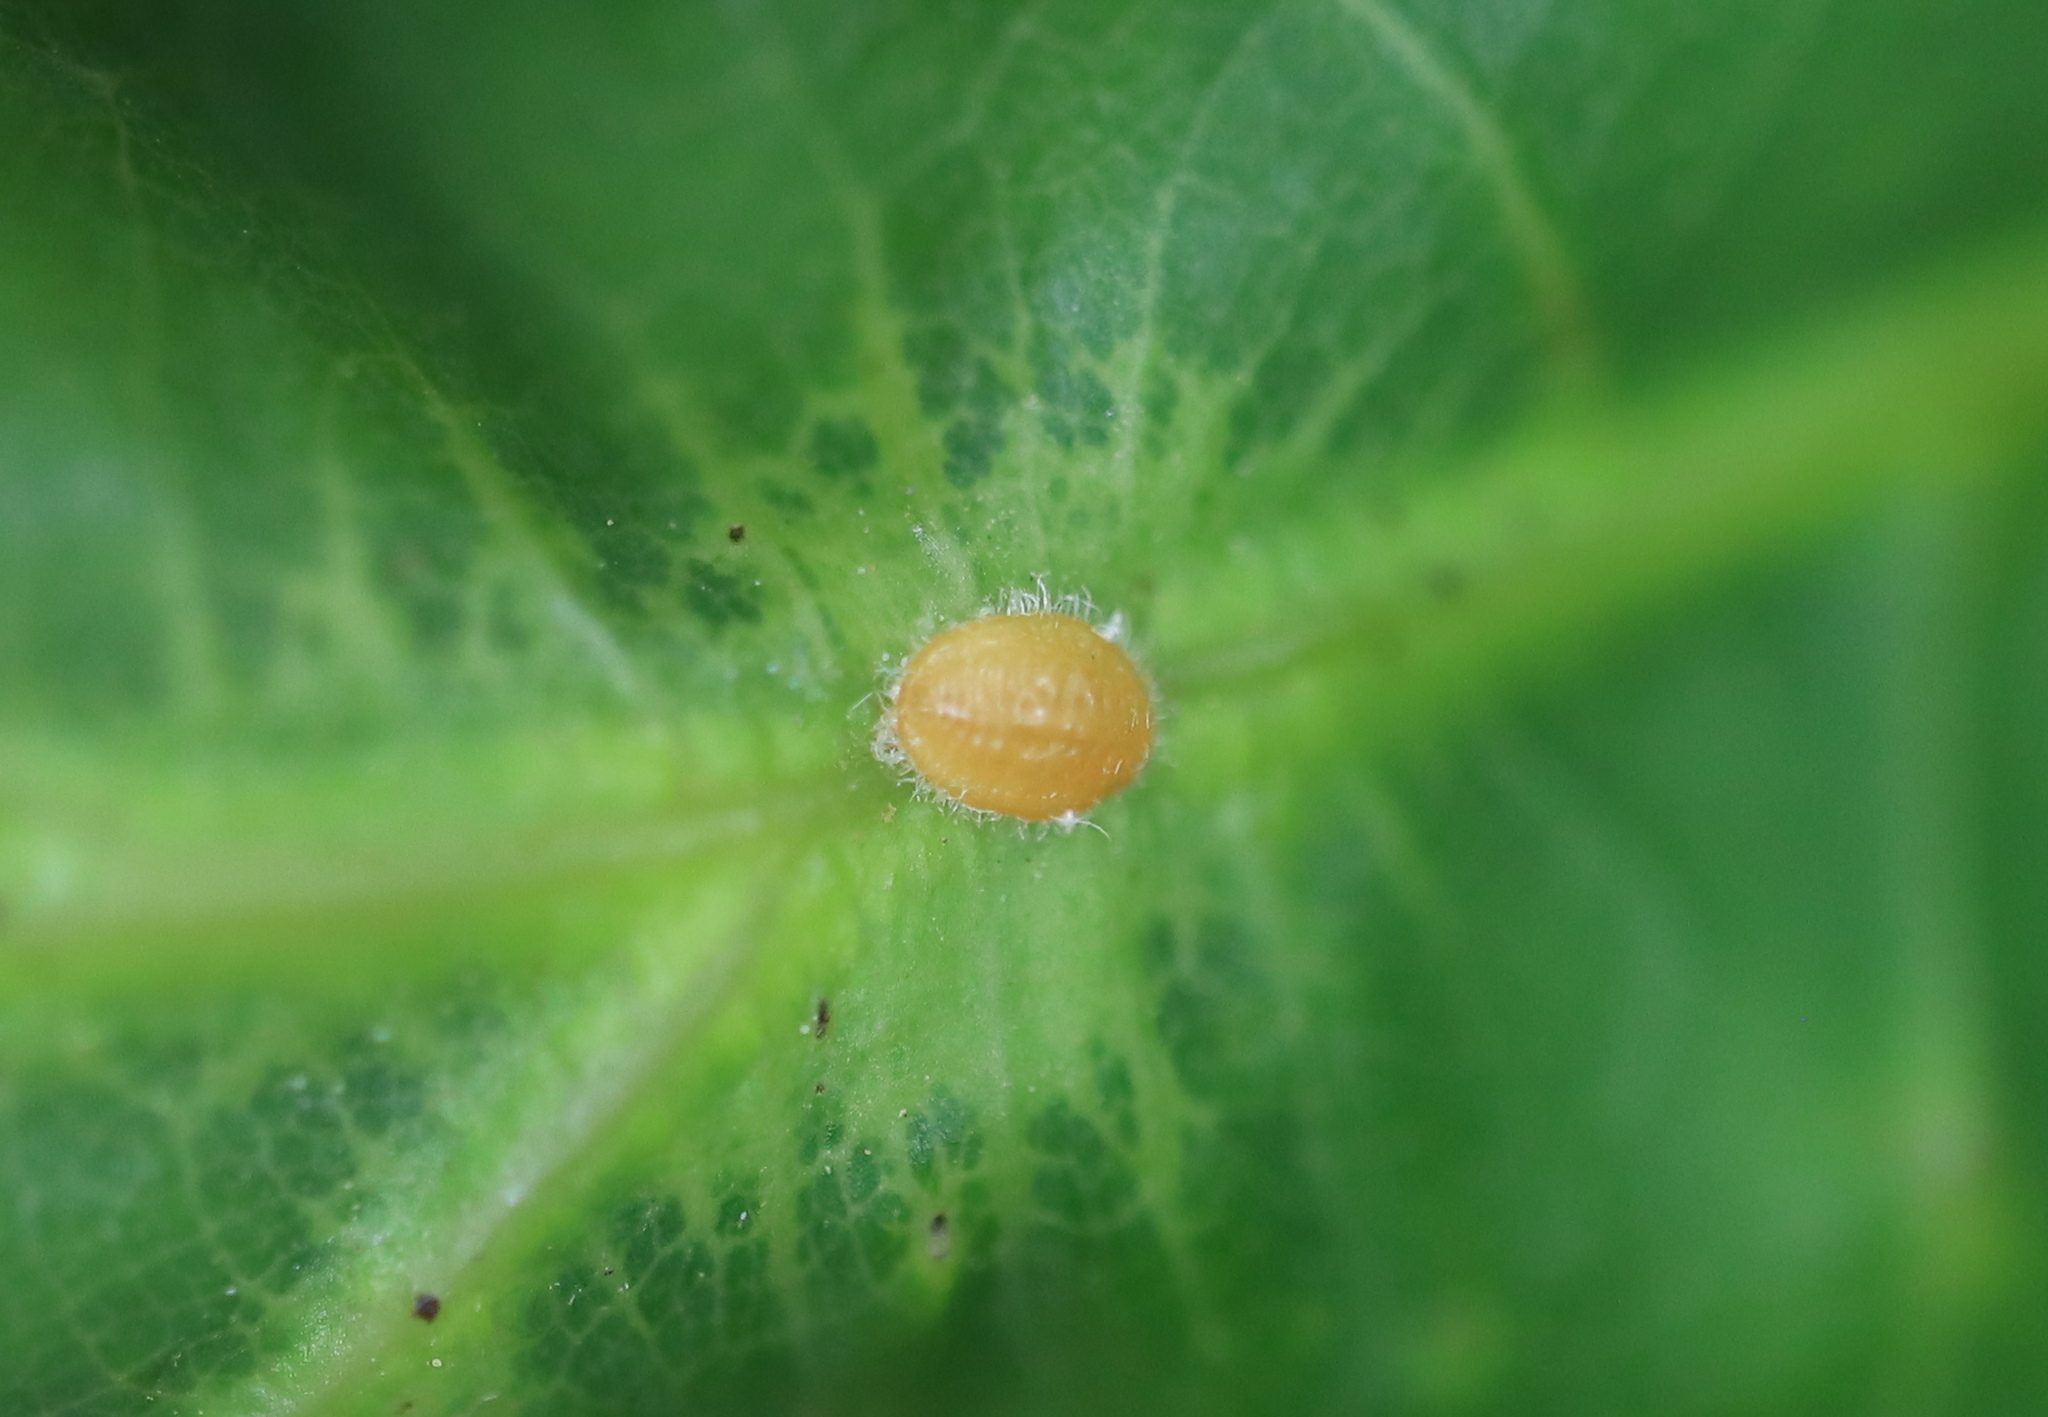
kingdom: Animalia
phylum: Arthropoda
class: Insecta
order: Hemiptera
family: Kermesidae
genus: Nanokermes
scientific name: Nanokermes folium
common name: Leaf kermes
